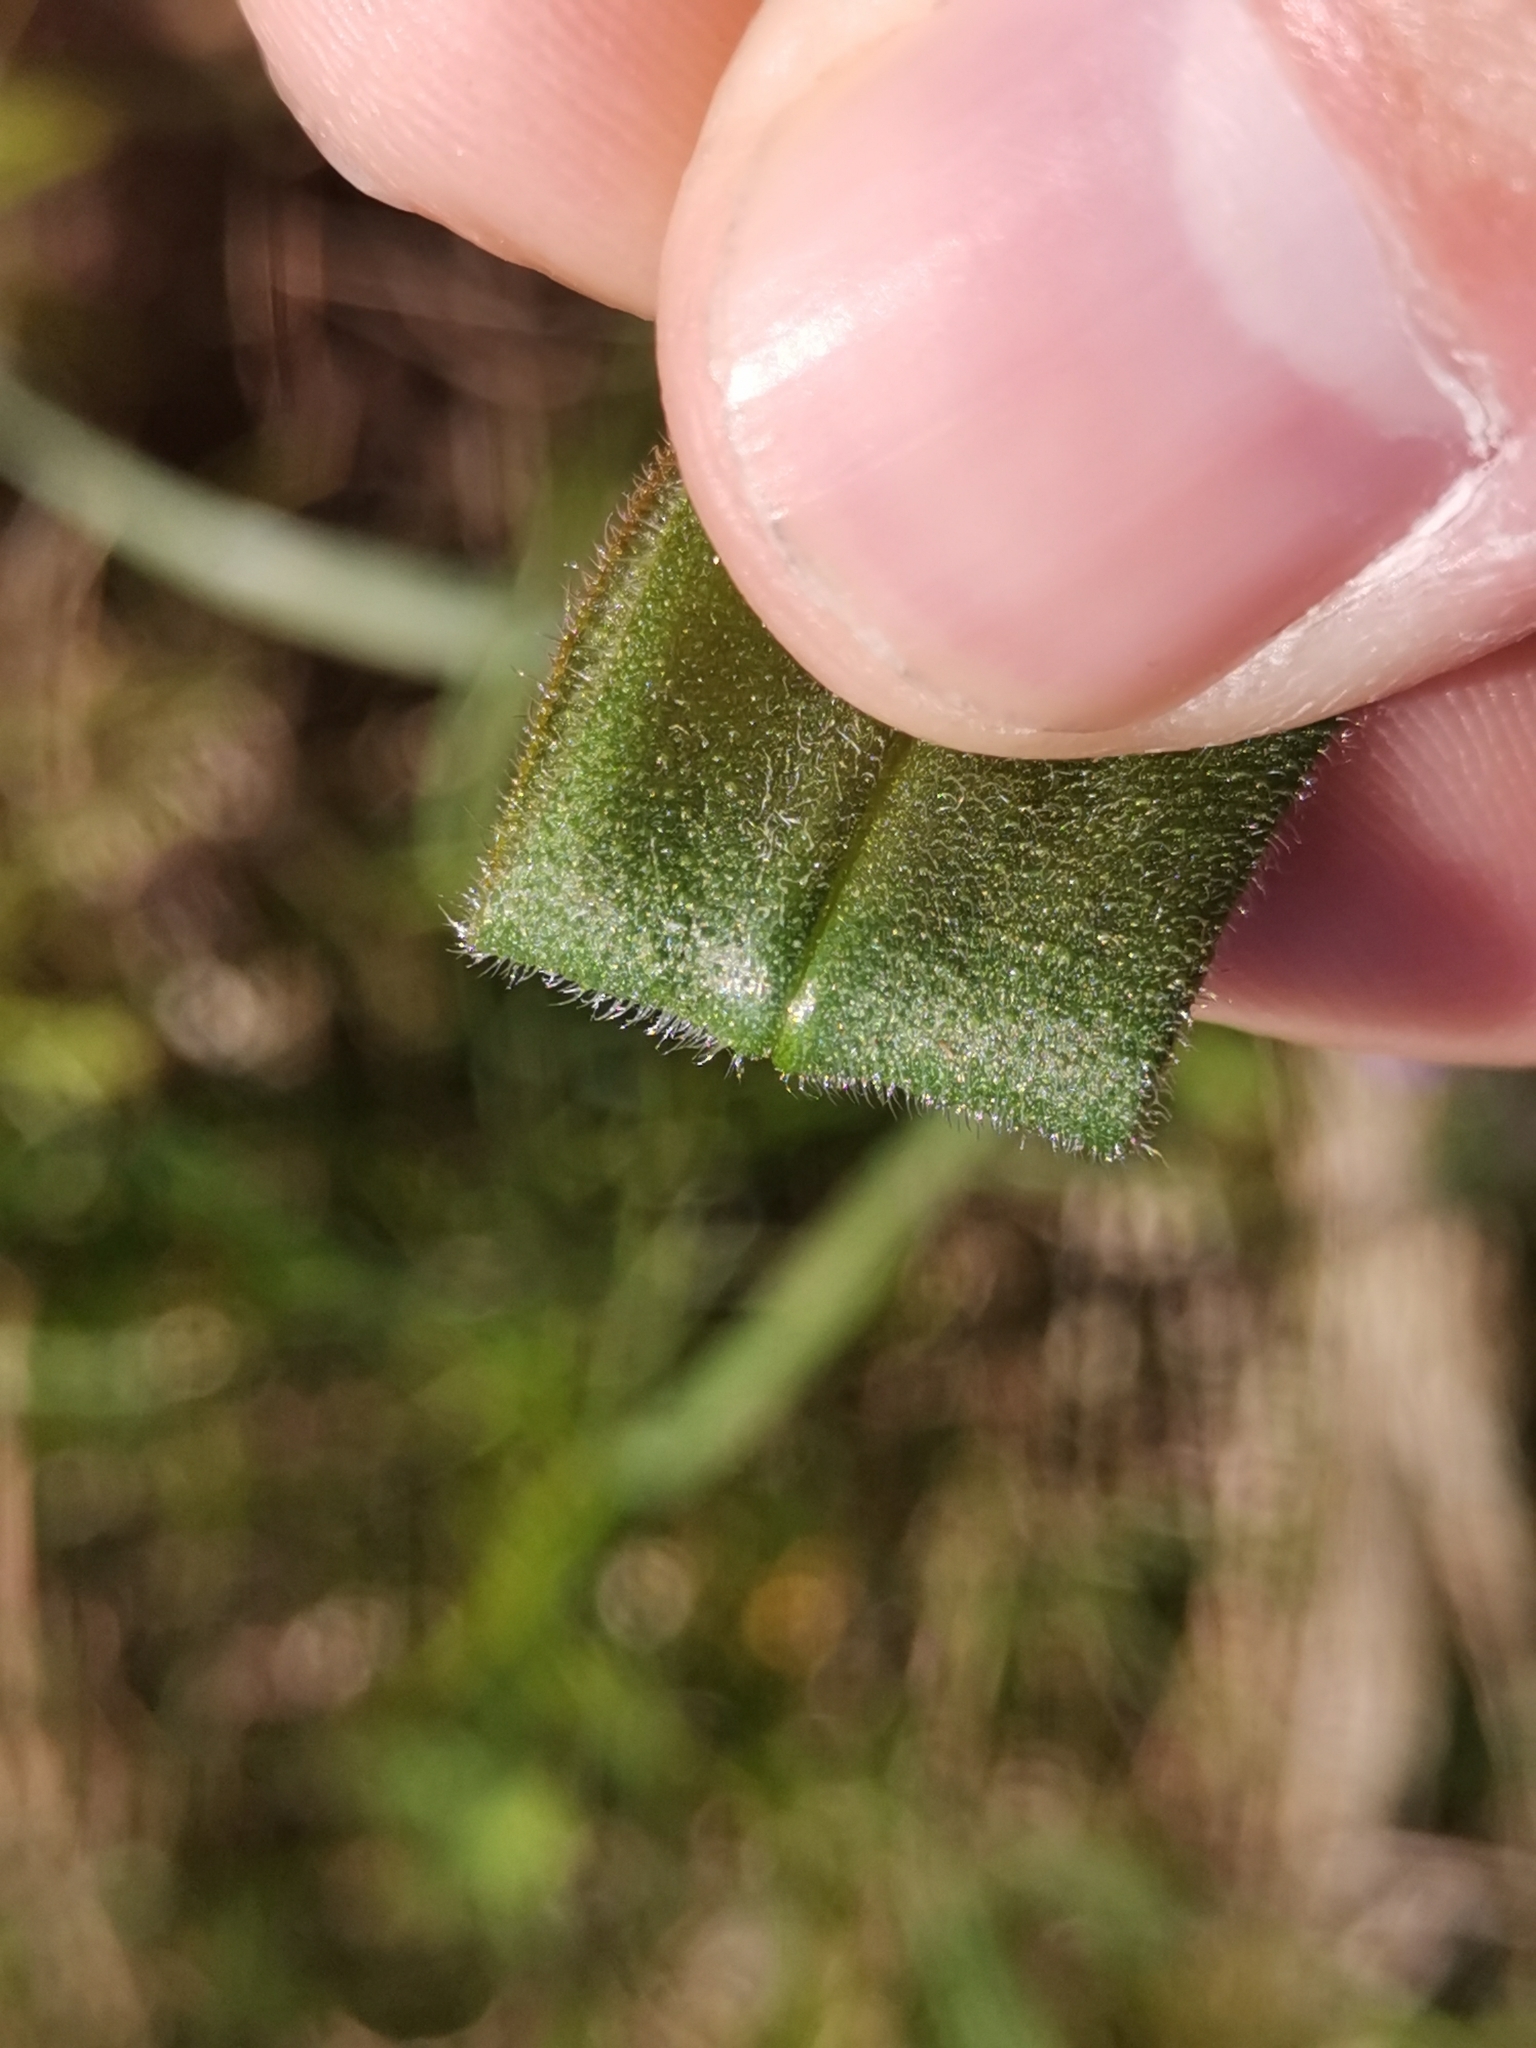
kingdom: Plantae
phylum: Tracheophyta
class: Magnoliopsida
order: Boraginales
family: Boraginaceae
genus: Pulmonaria
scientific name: Pulmonaria australis
